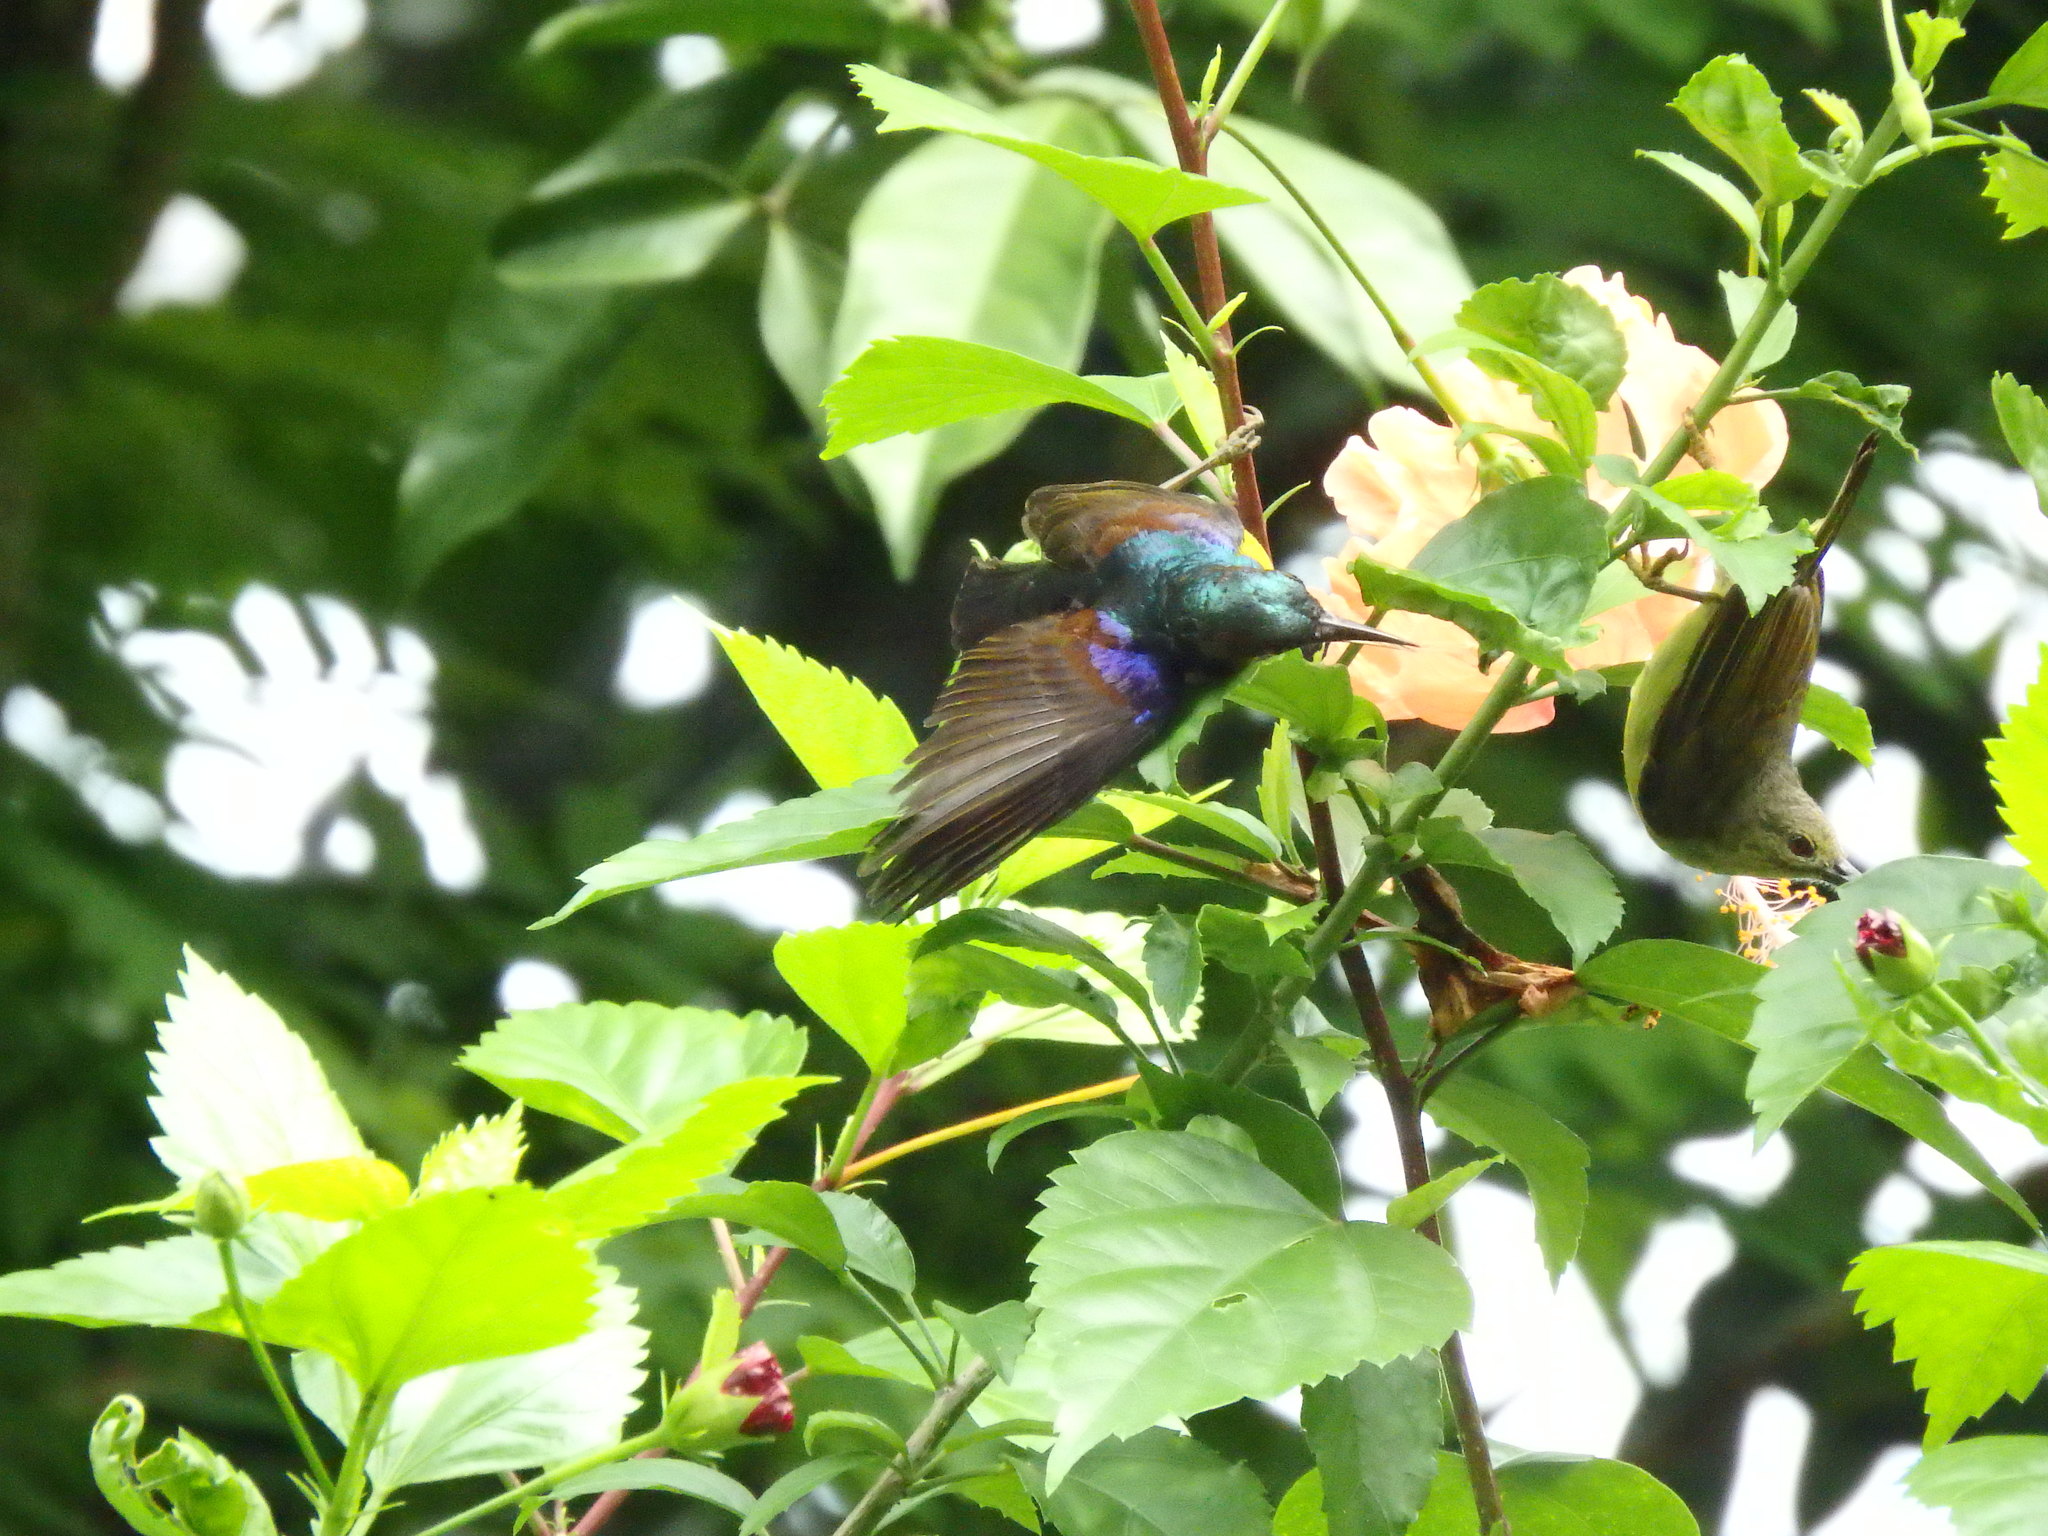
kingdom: Animalia
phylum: Chordata
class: Aves
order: Passeriformes
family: Nectariniidae
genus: Anthreptes
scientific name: Anthreptes malacensis
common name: Brown-throated sunbird
